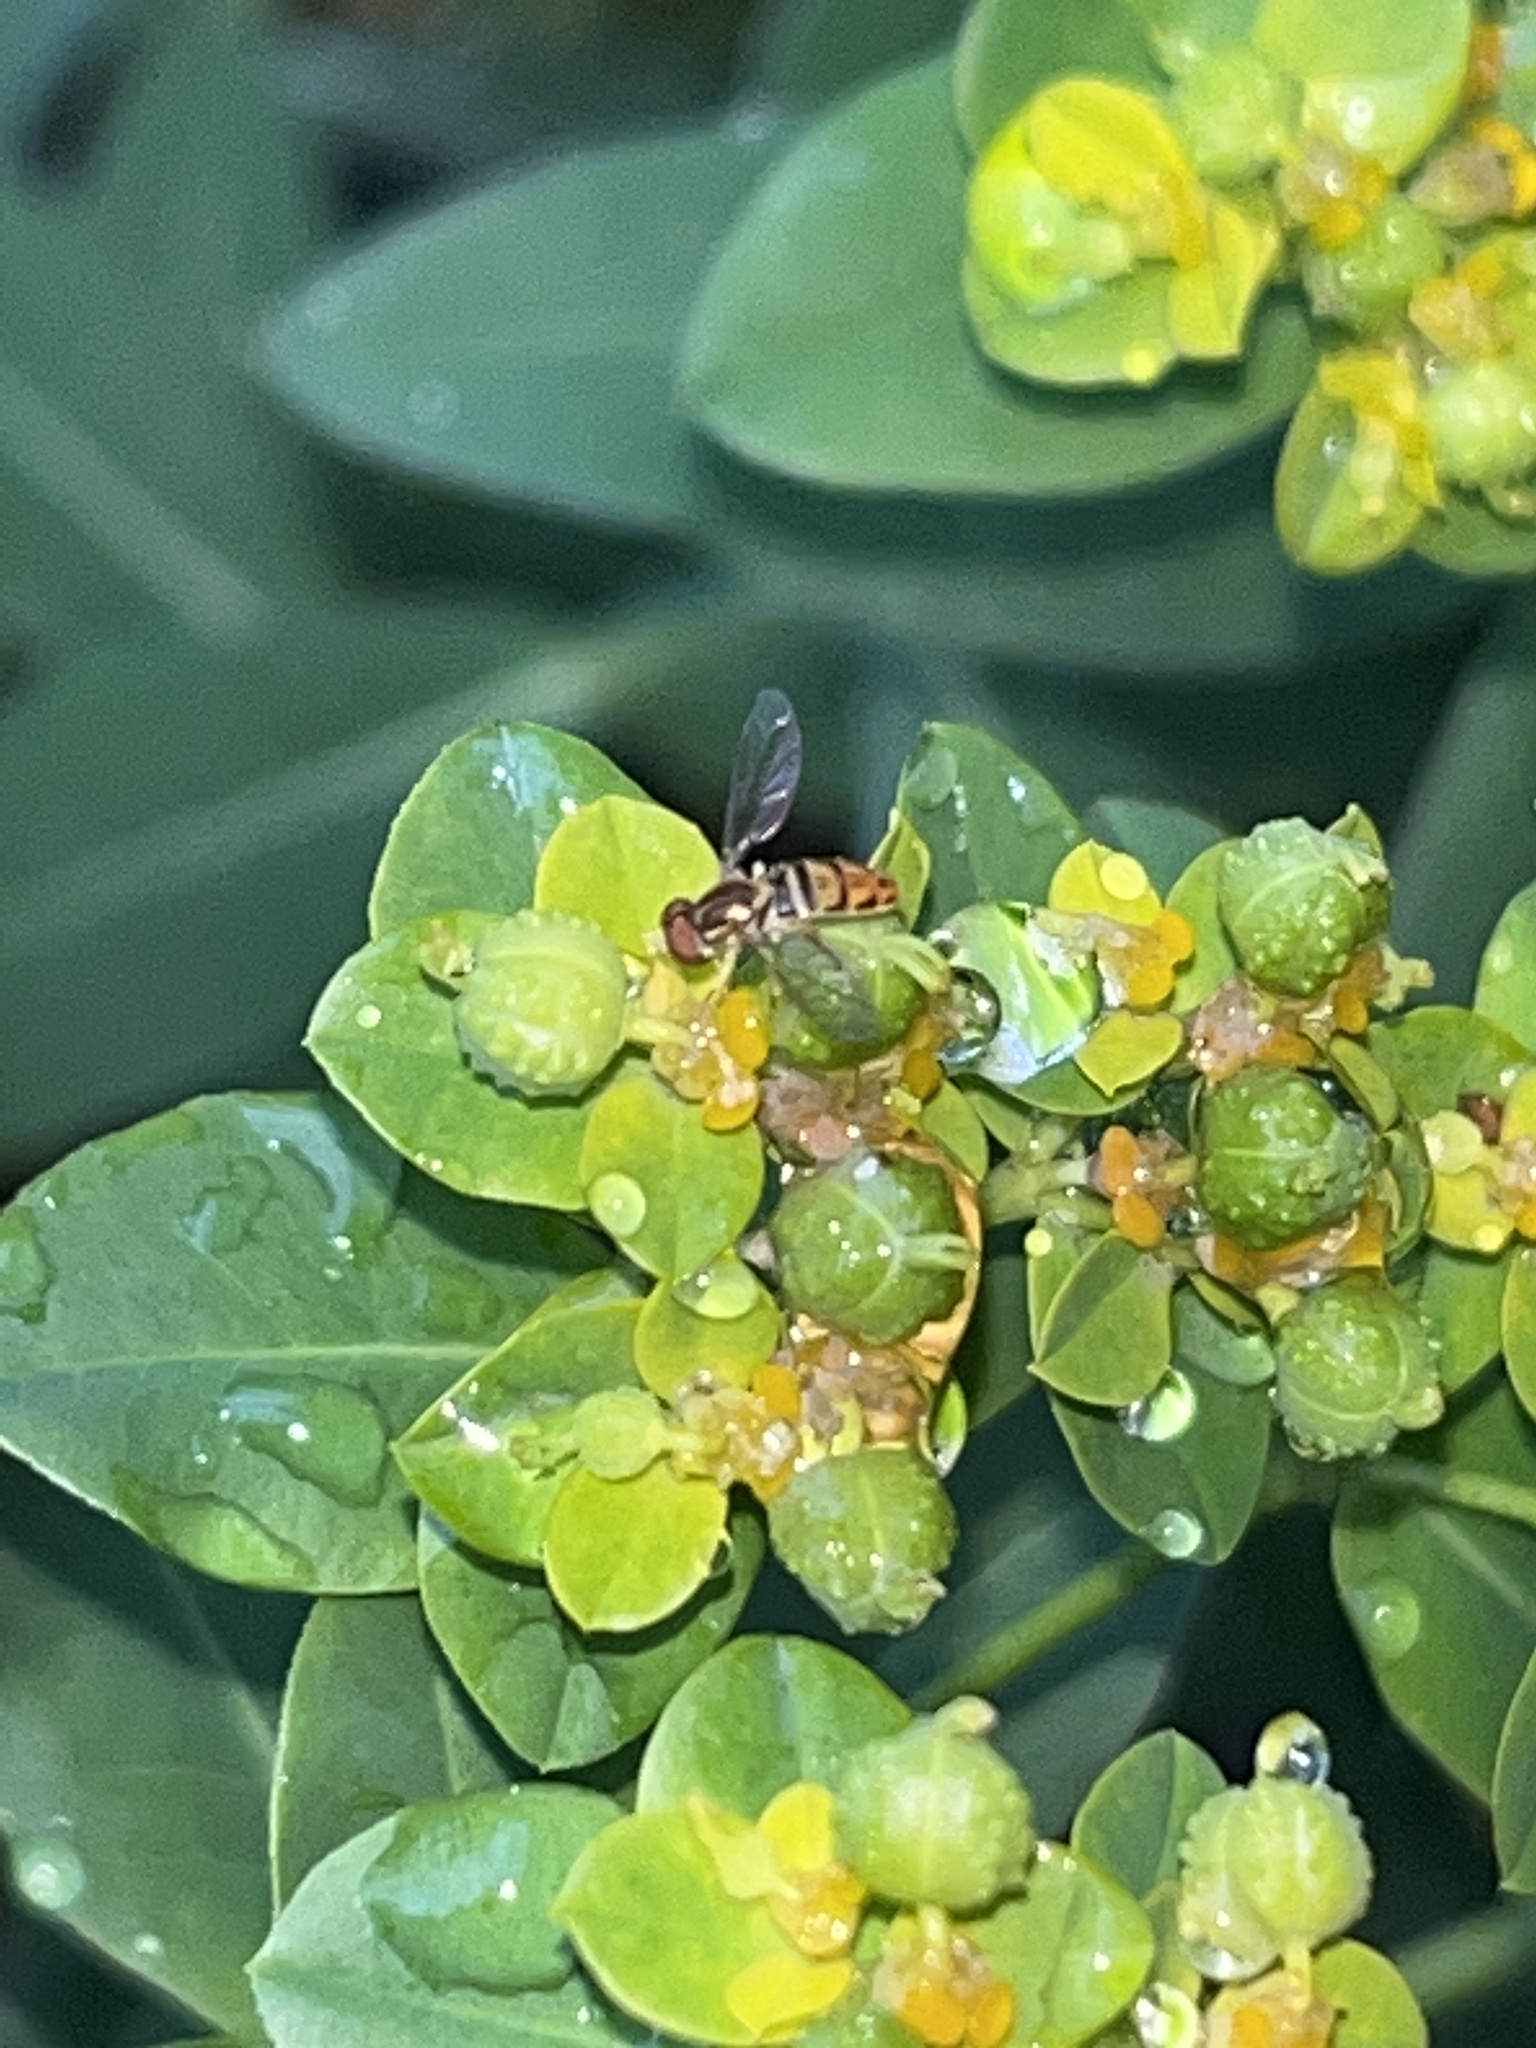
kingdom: Animalia
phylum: Arthropoda
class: Insecta
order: Diptera
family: Syrphidae
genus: Toxomerus
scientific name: Toxomerus marginatus
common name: Syrphid fly
